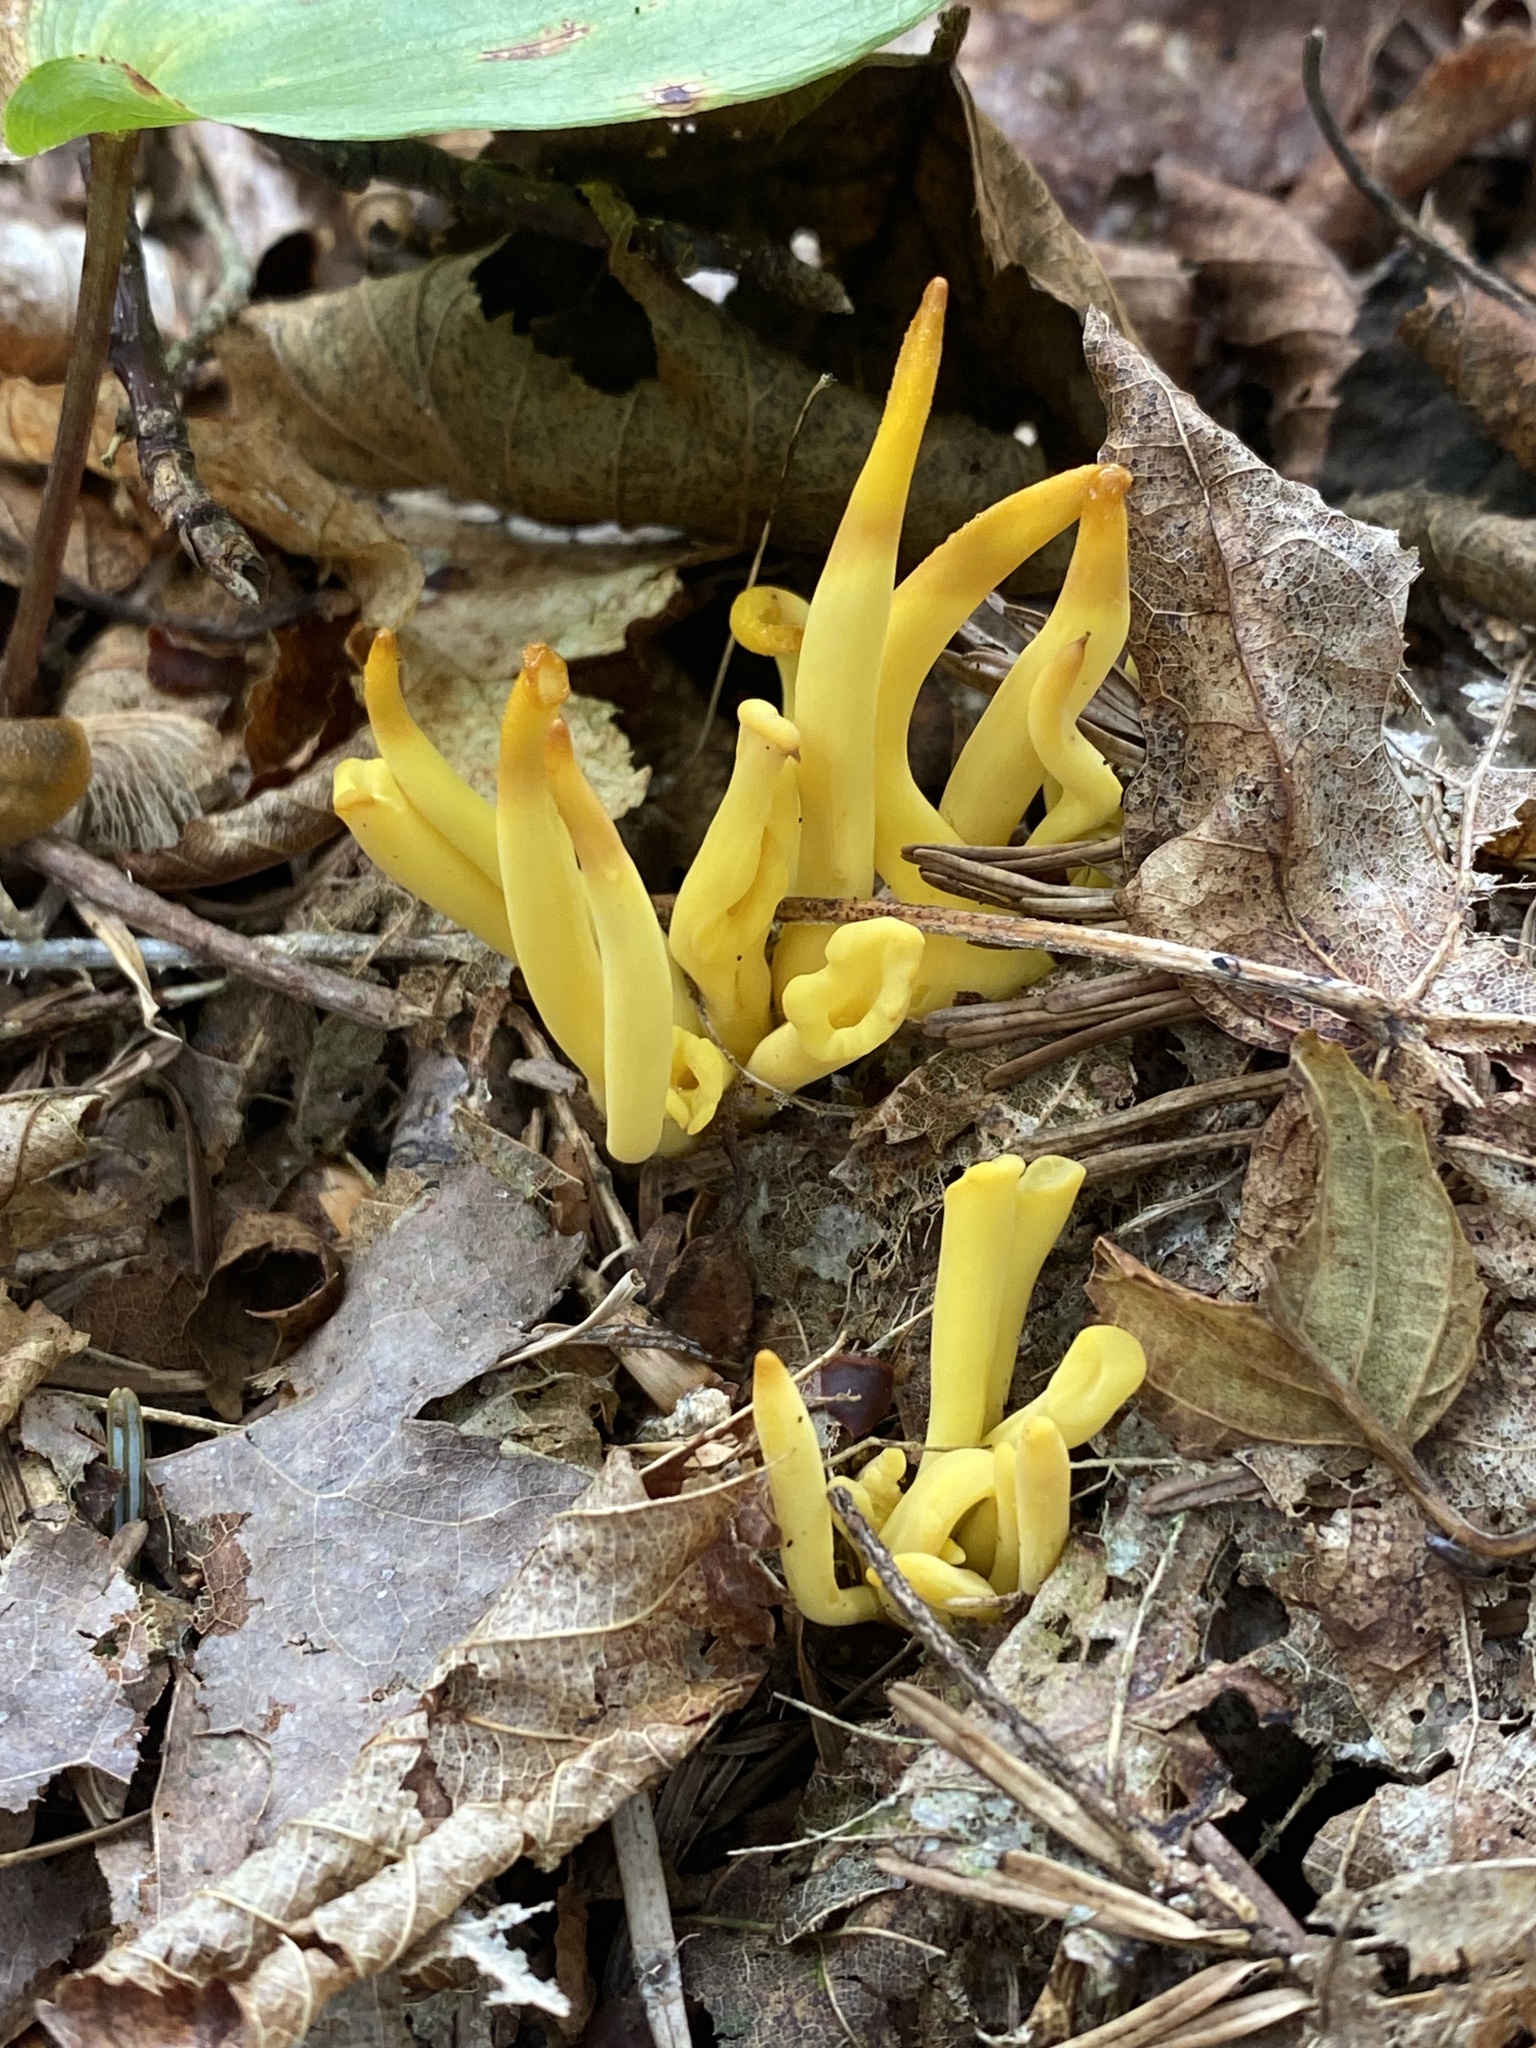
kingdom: Fungi
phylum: Basidiomycota
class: Agaricomycetes
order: Agaricales
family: Clavariaceae
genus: Clavulinopsis
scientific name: Clavulinopsis fusiformis
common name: Golden spindles
